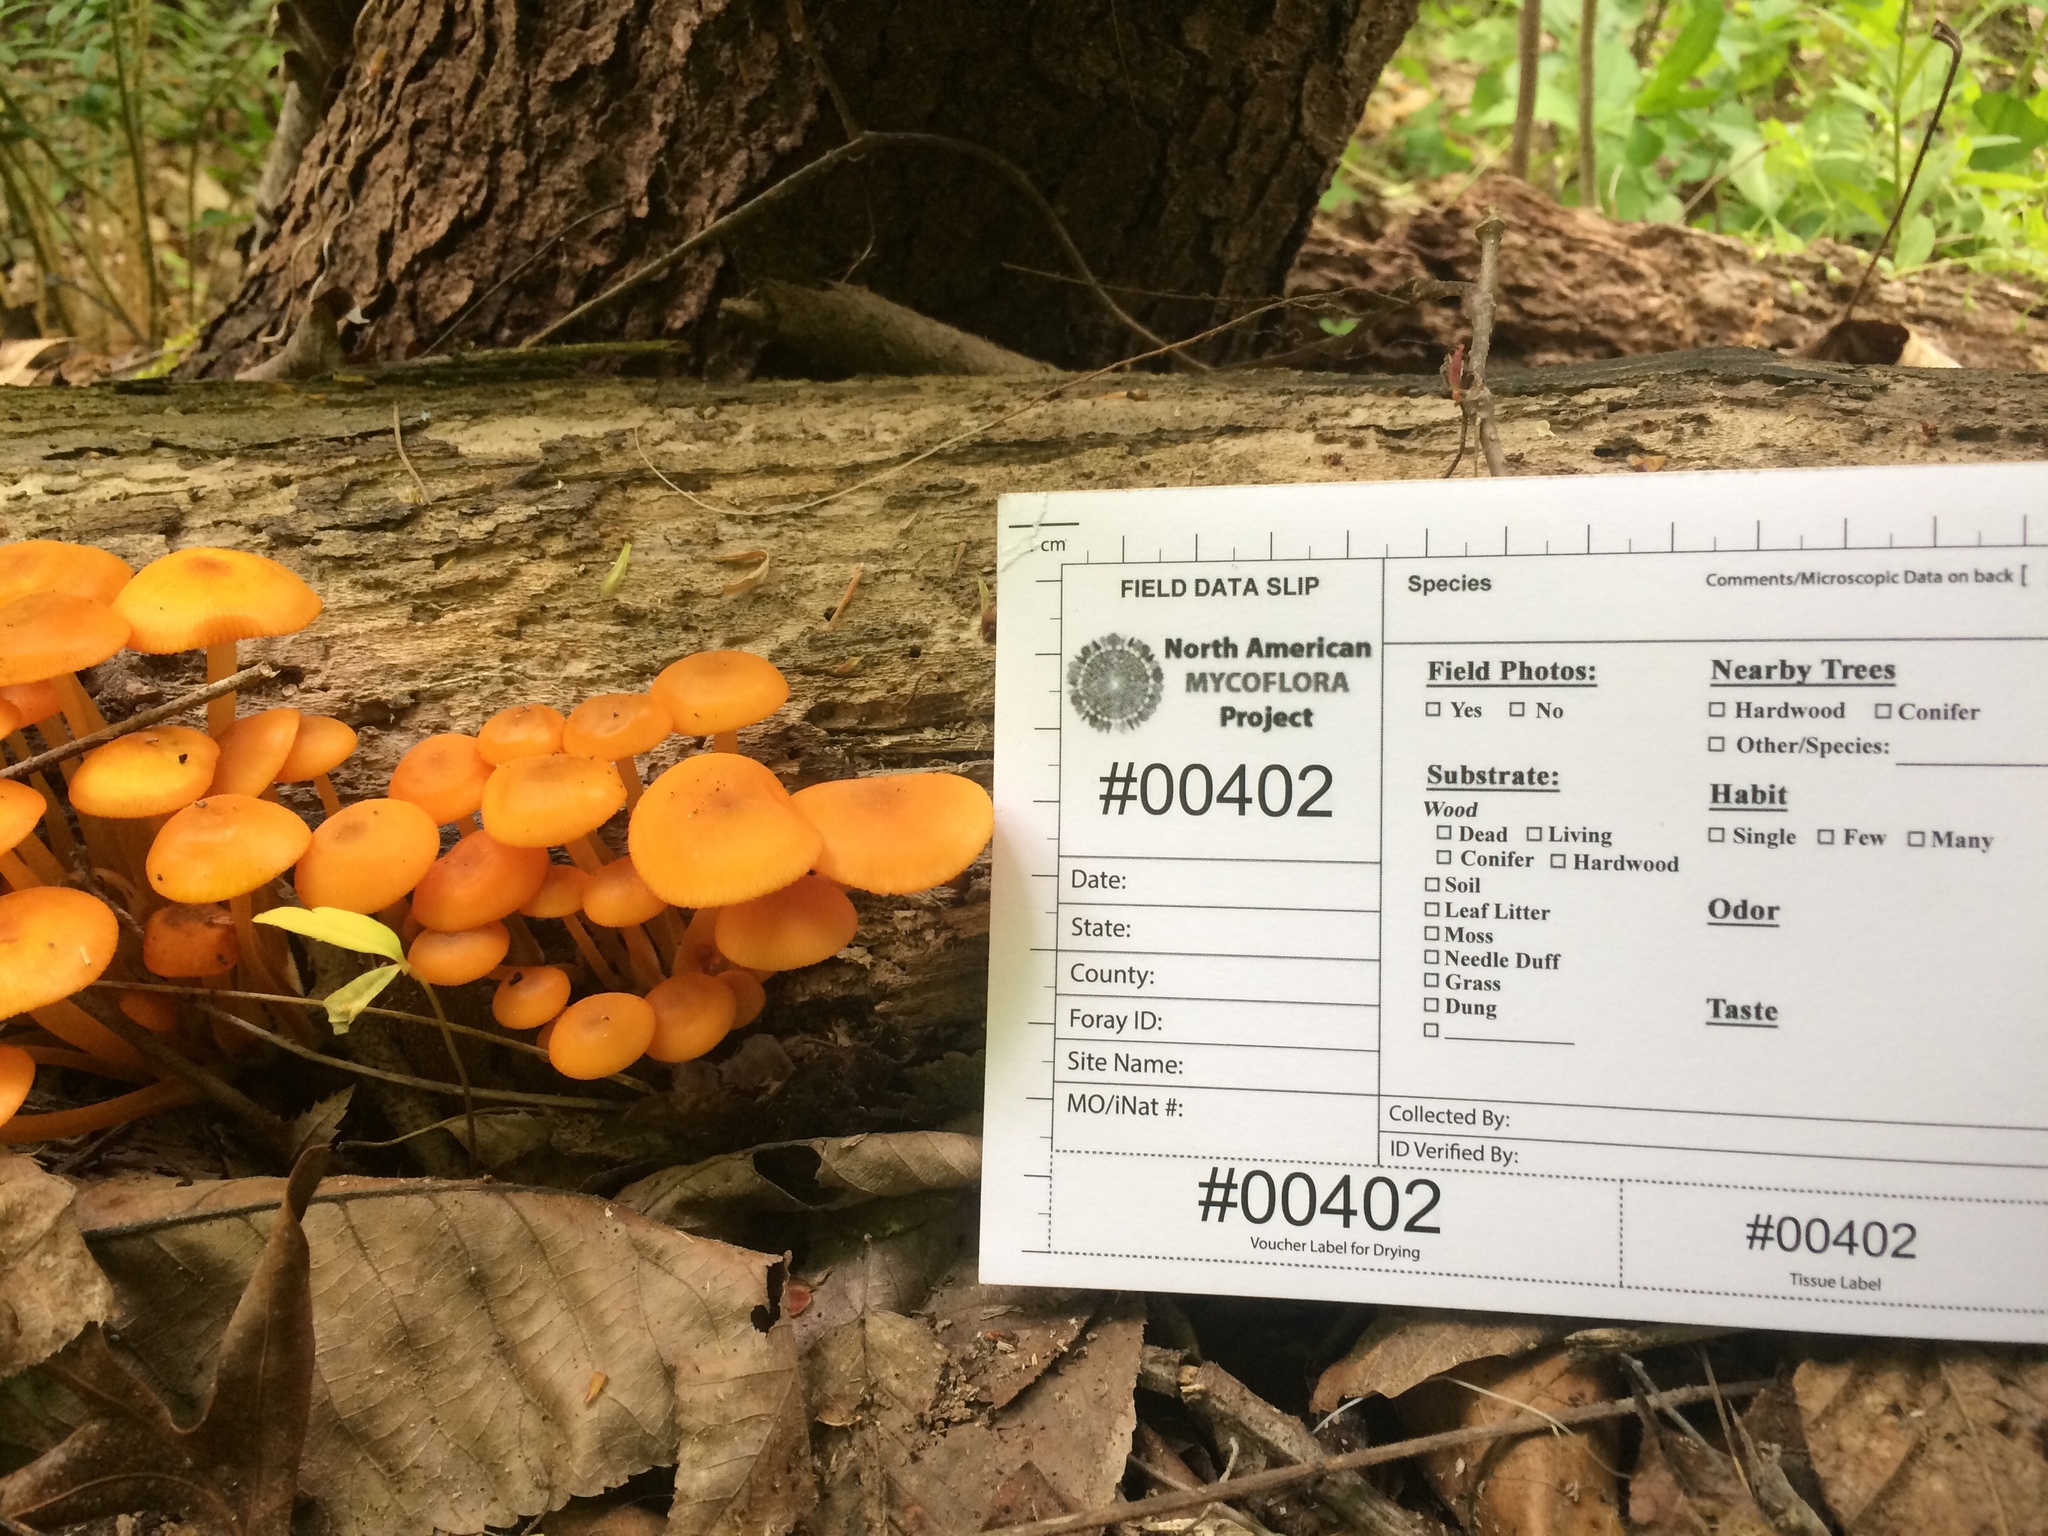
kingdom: Fungi
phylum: Basidiomycota
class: Agaricomycetes
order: Agaricales
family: Mycenaceae
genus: Mycena
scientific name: Mycena leaiana
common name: Orange mycena
